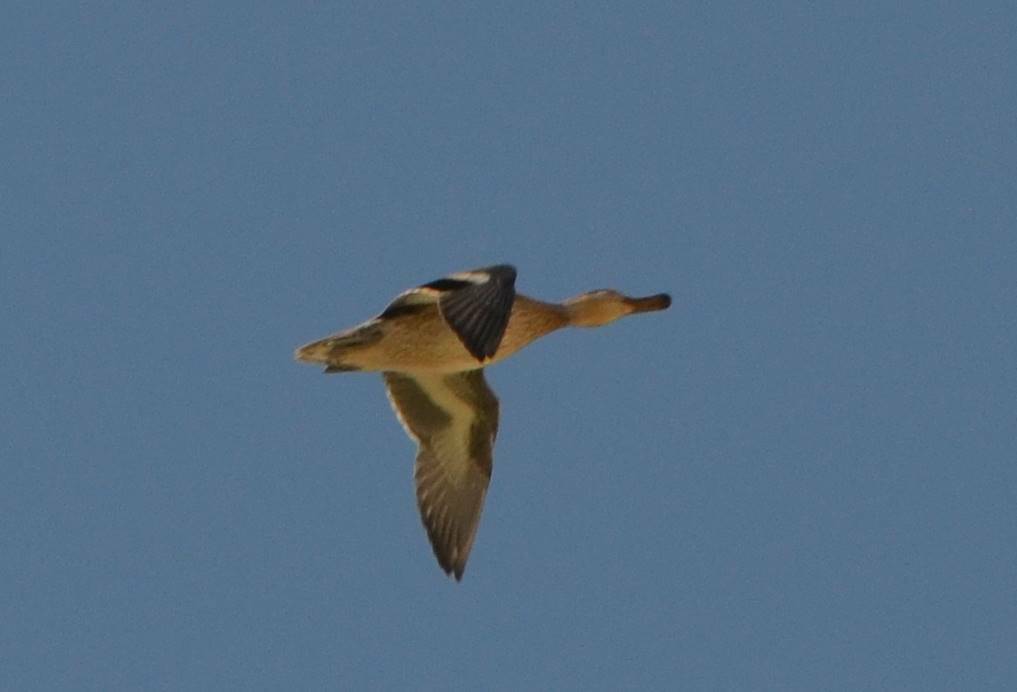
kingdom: Animalia
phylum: Chordata
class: Aves
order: Anseriformes
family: Anatidae
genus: Anas
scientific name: Anas crecca
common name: Eurasian teal
